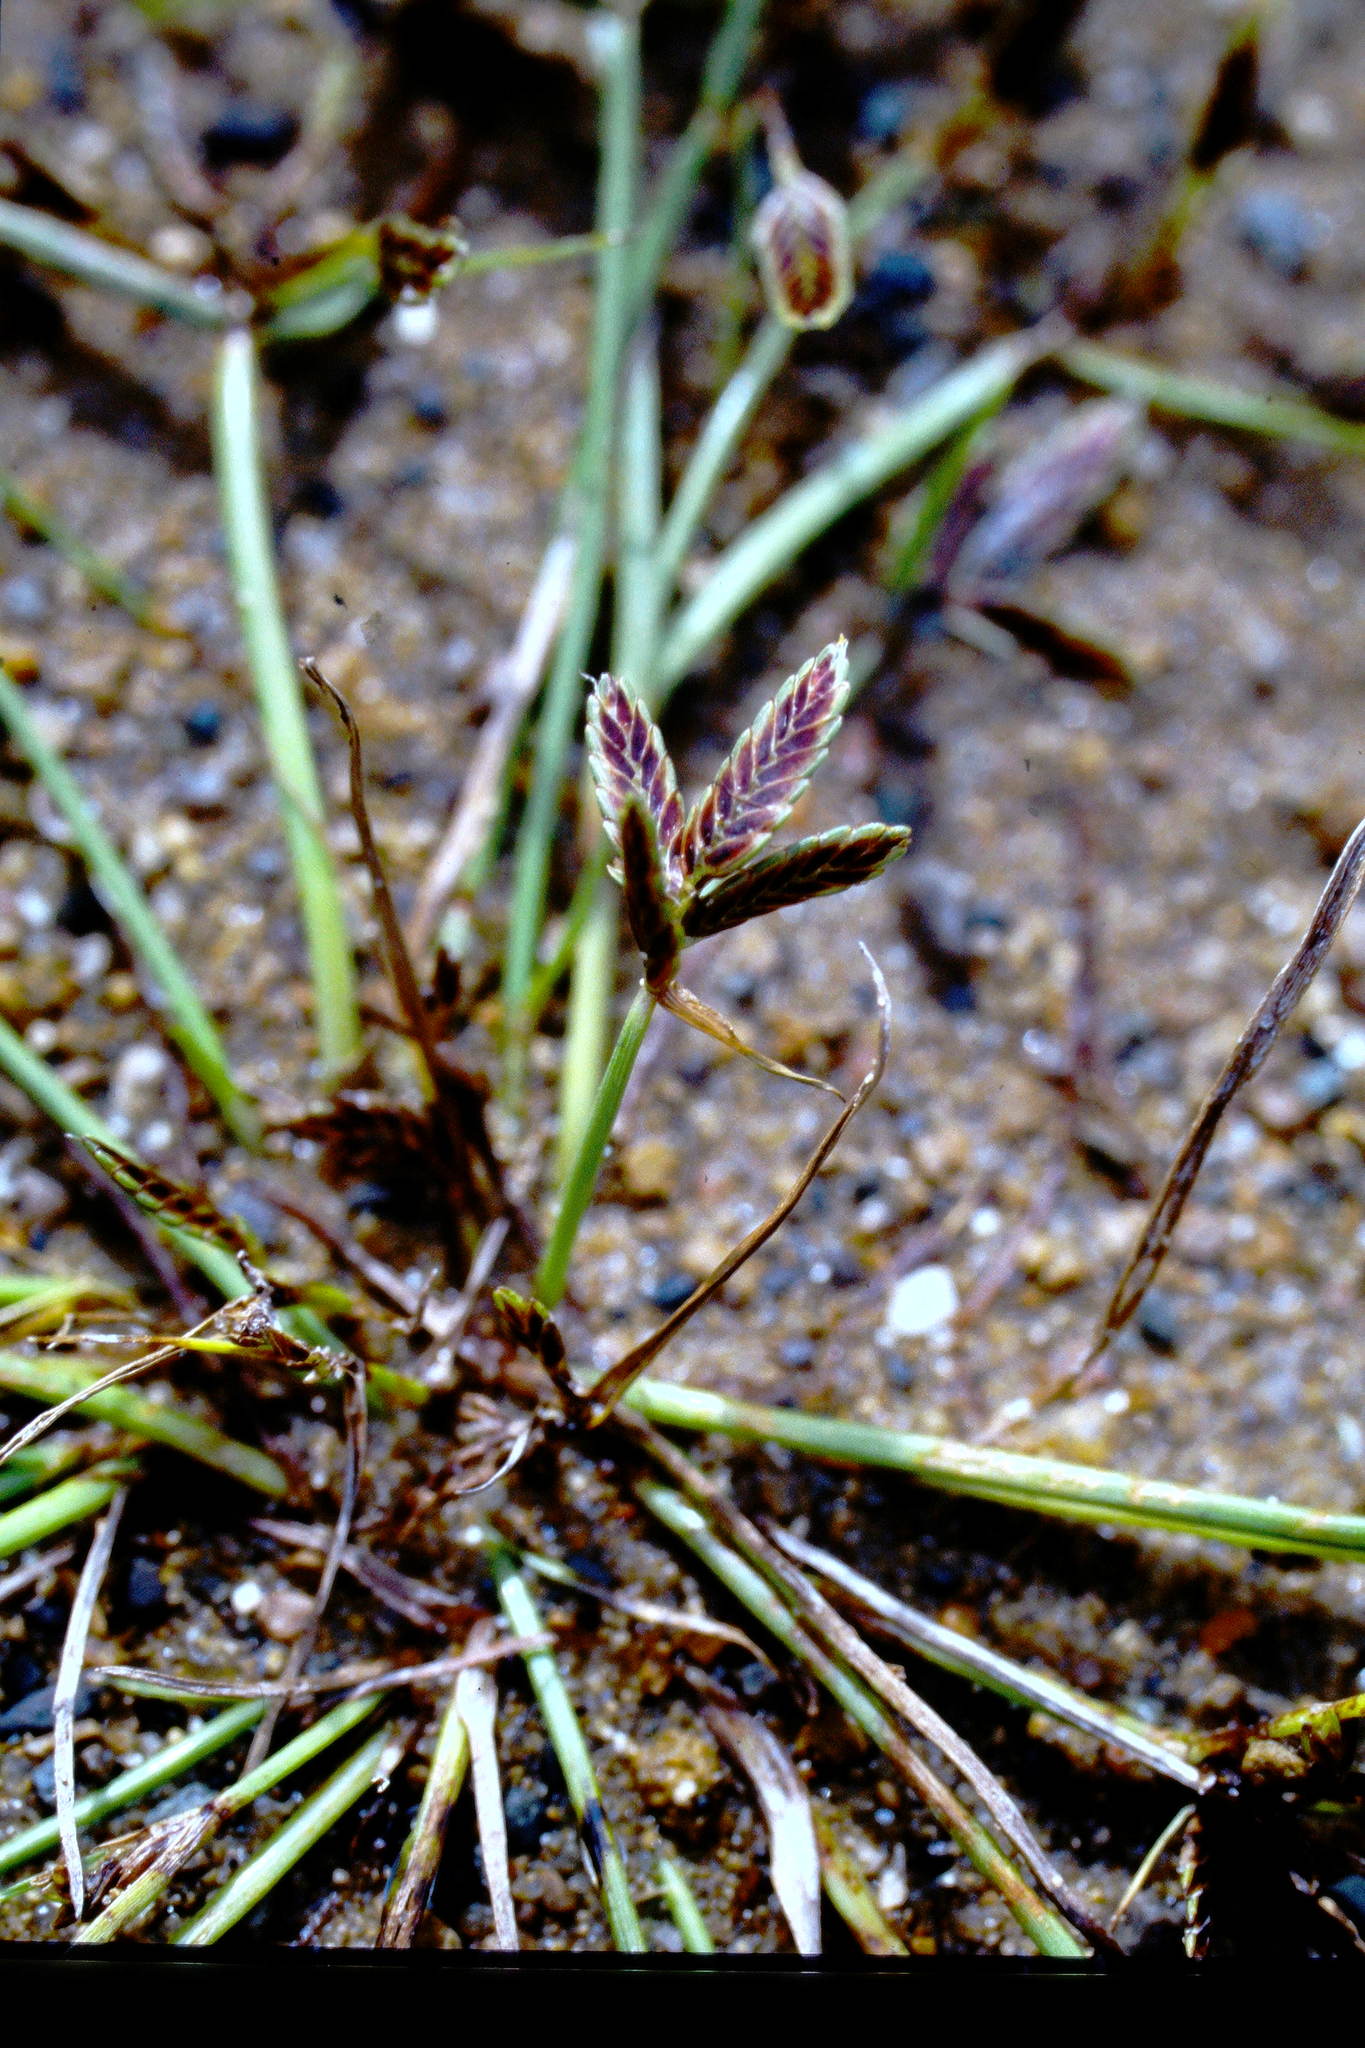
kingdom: Plantae
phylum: Tracheophyta
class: Liliopsida
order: Poales
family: Cyperaceae
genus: Cyperus
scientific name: Cyperus bipartitus
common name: Brook flatsedge
